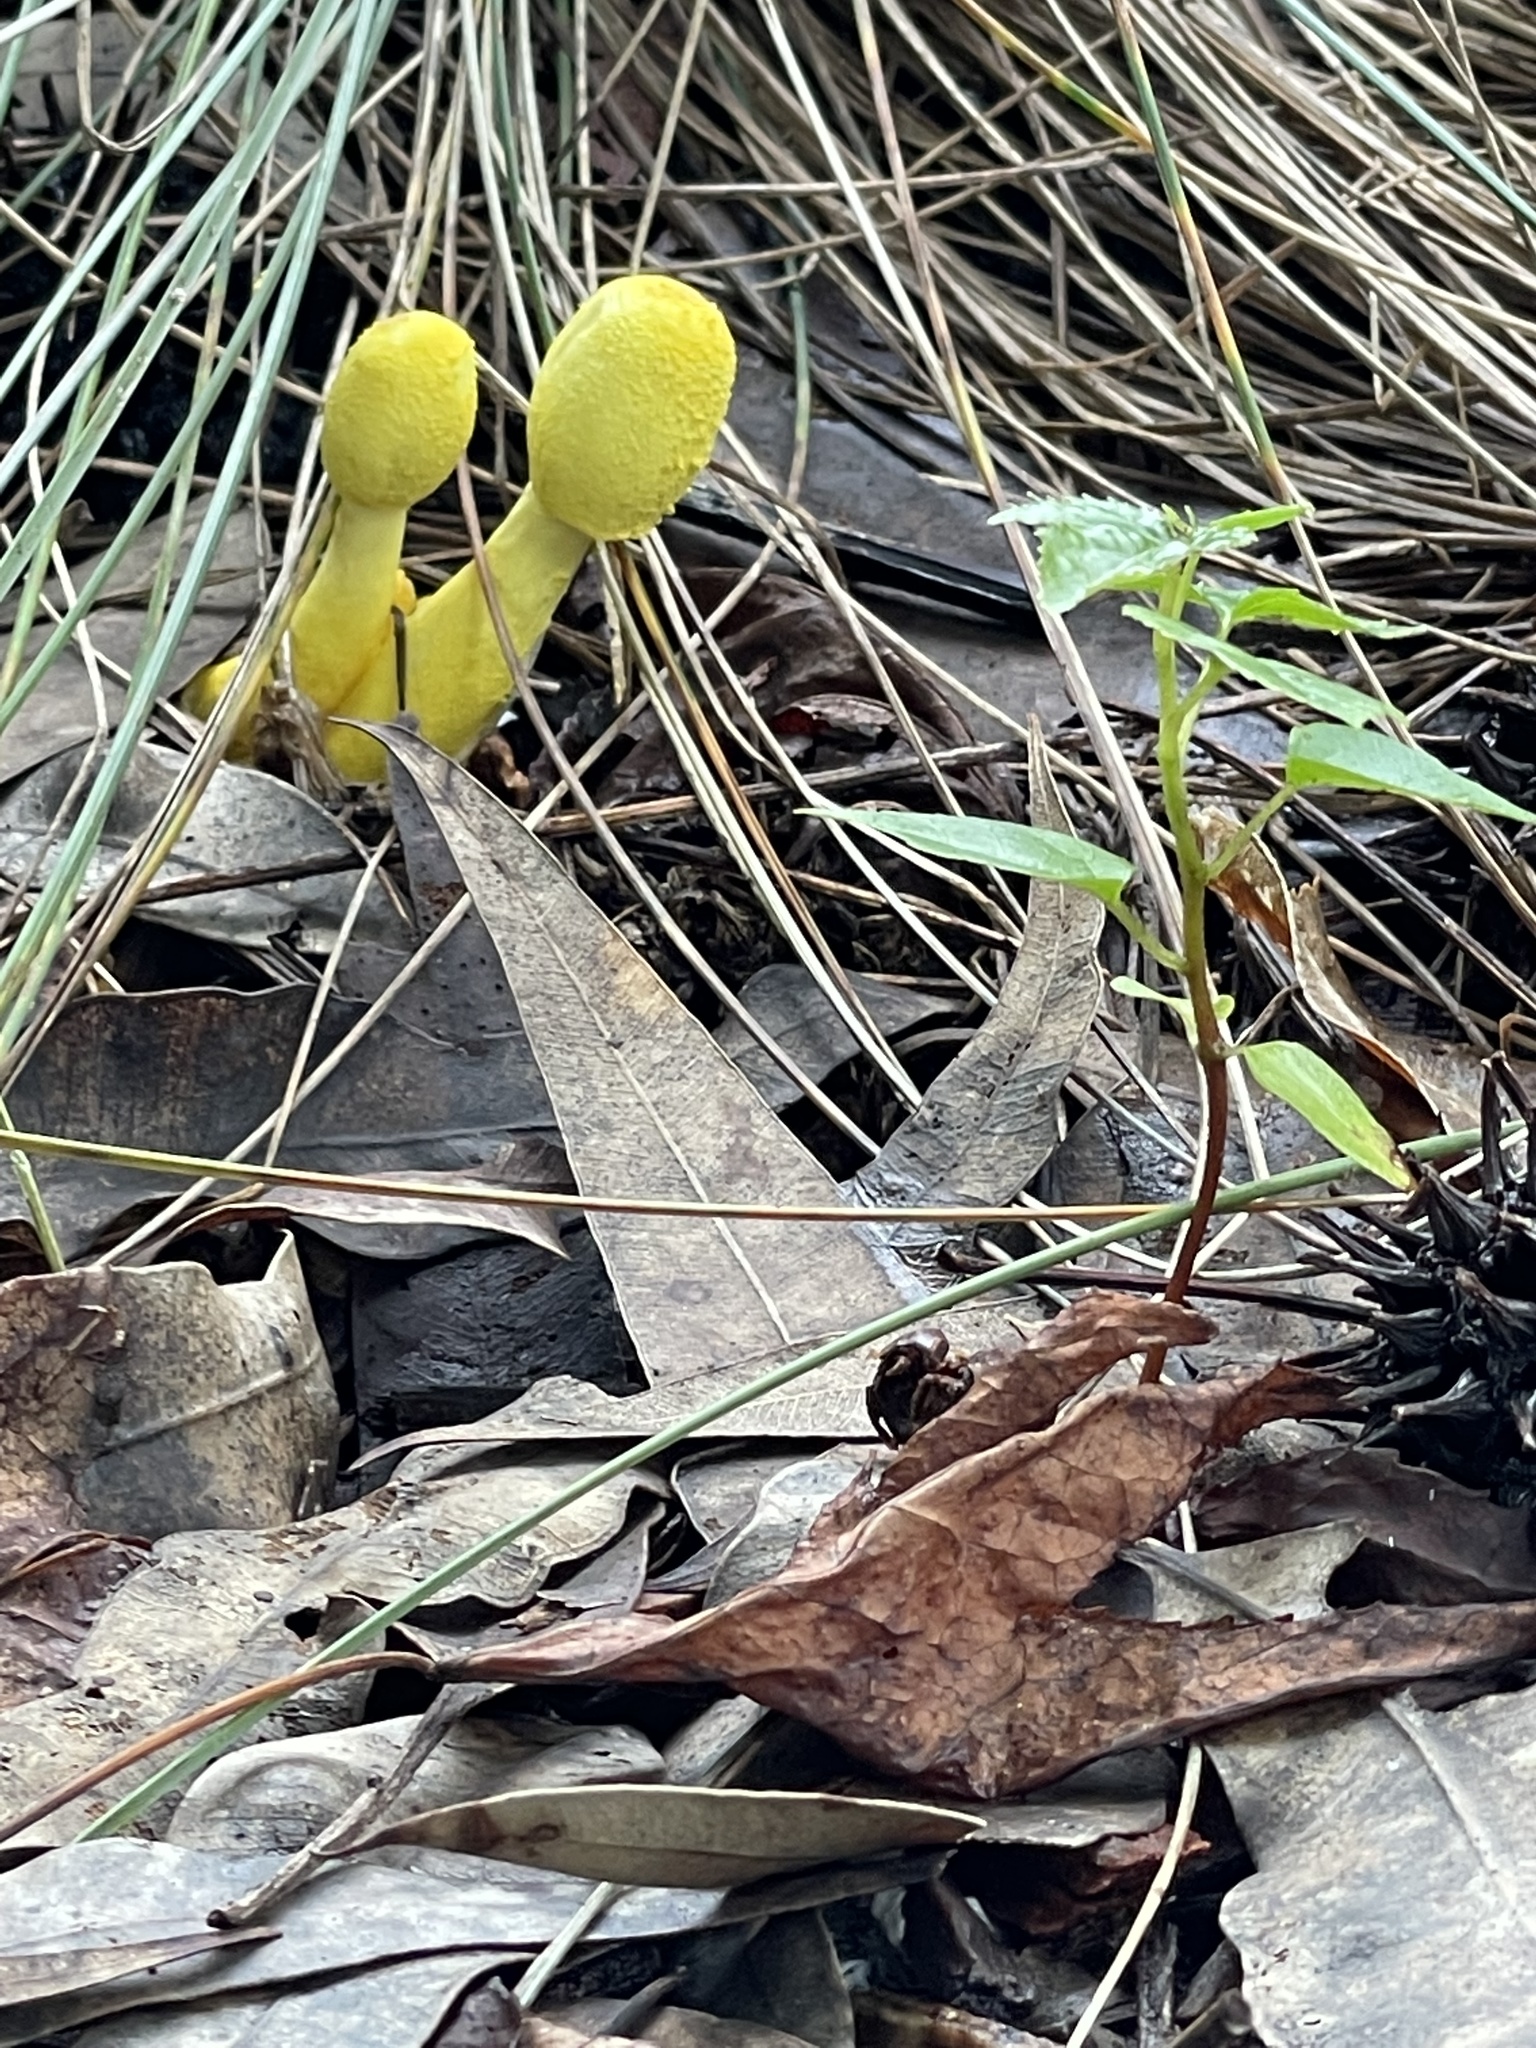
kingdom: Fungi
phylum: Basidiomycota
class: Agaricomycetes
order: Agaricales
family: Agaricaceae
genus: Leucocoprinus
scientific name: Leucocoprinus birnbaumii
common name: Plantpot dapperling
